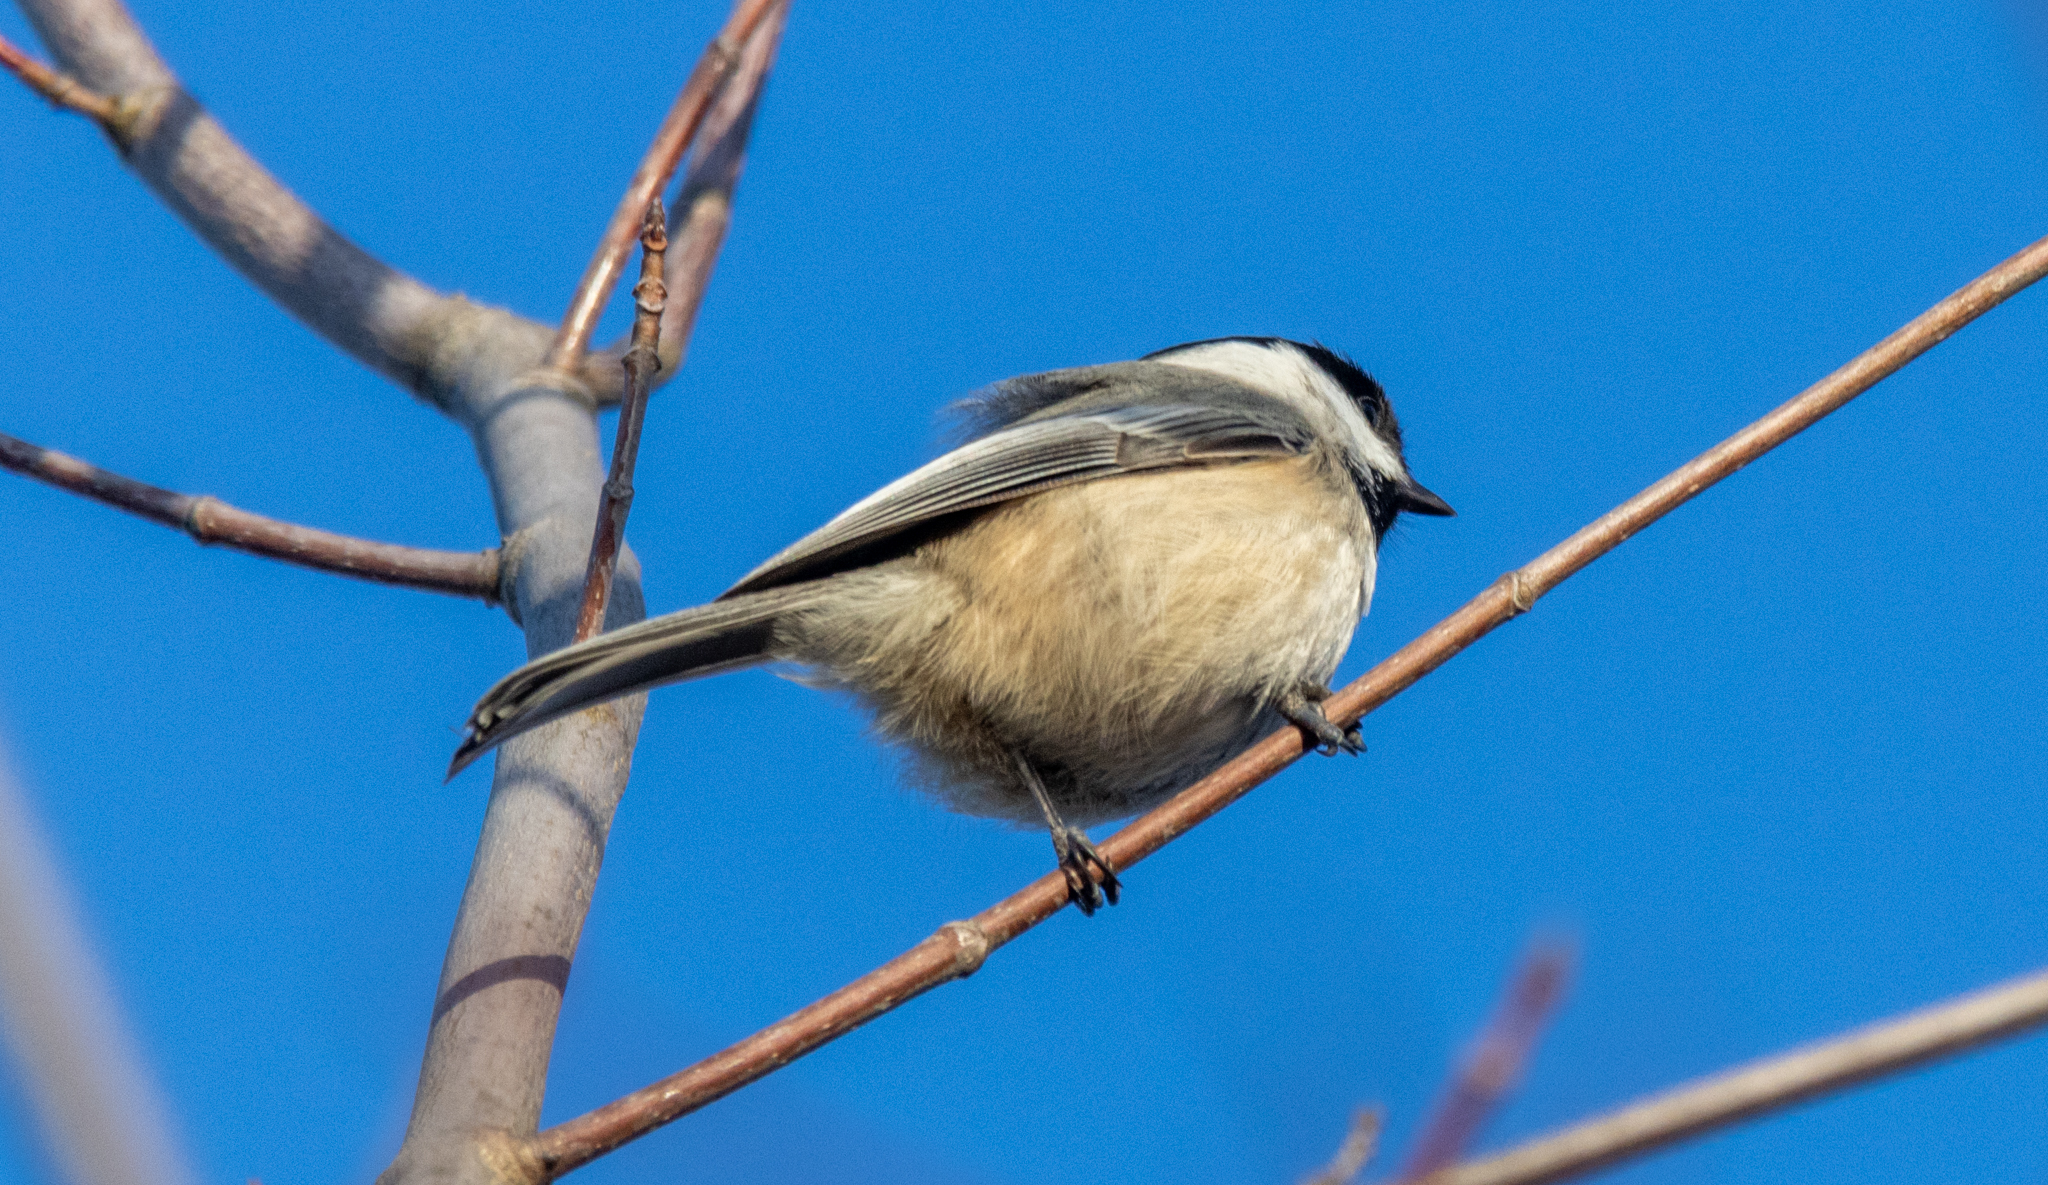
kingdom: Animalia
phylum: Chordata
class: Aves
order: Passeriformes
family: Paridae
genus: Poecile
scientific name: Poecile atricapillus
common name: Black-capped chickadee
